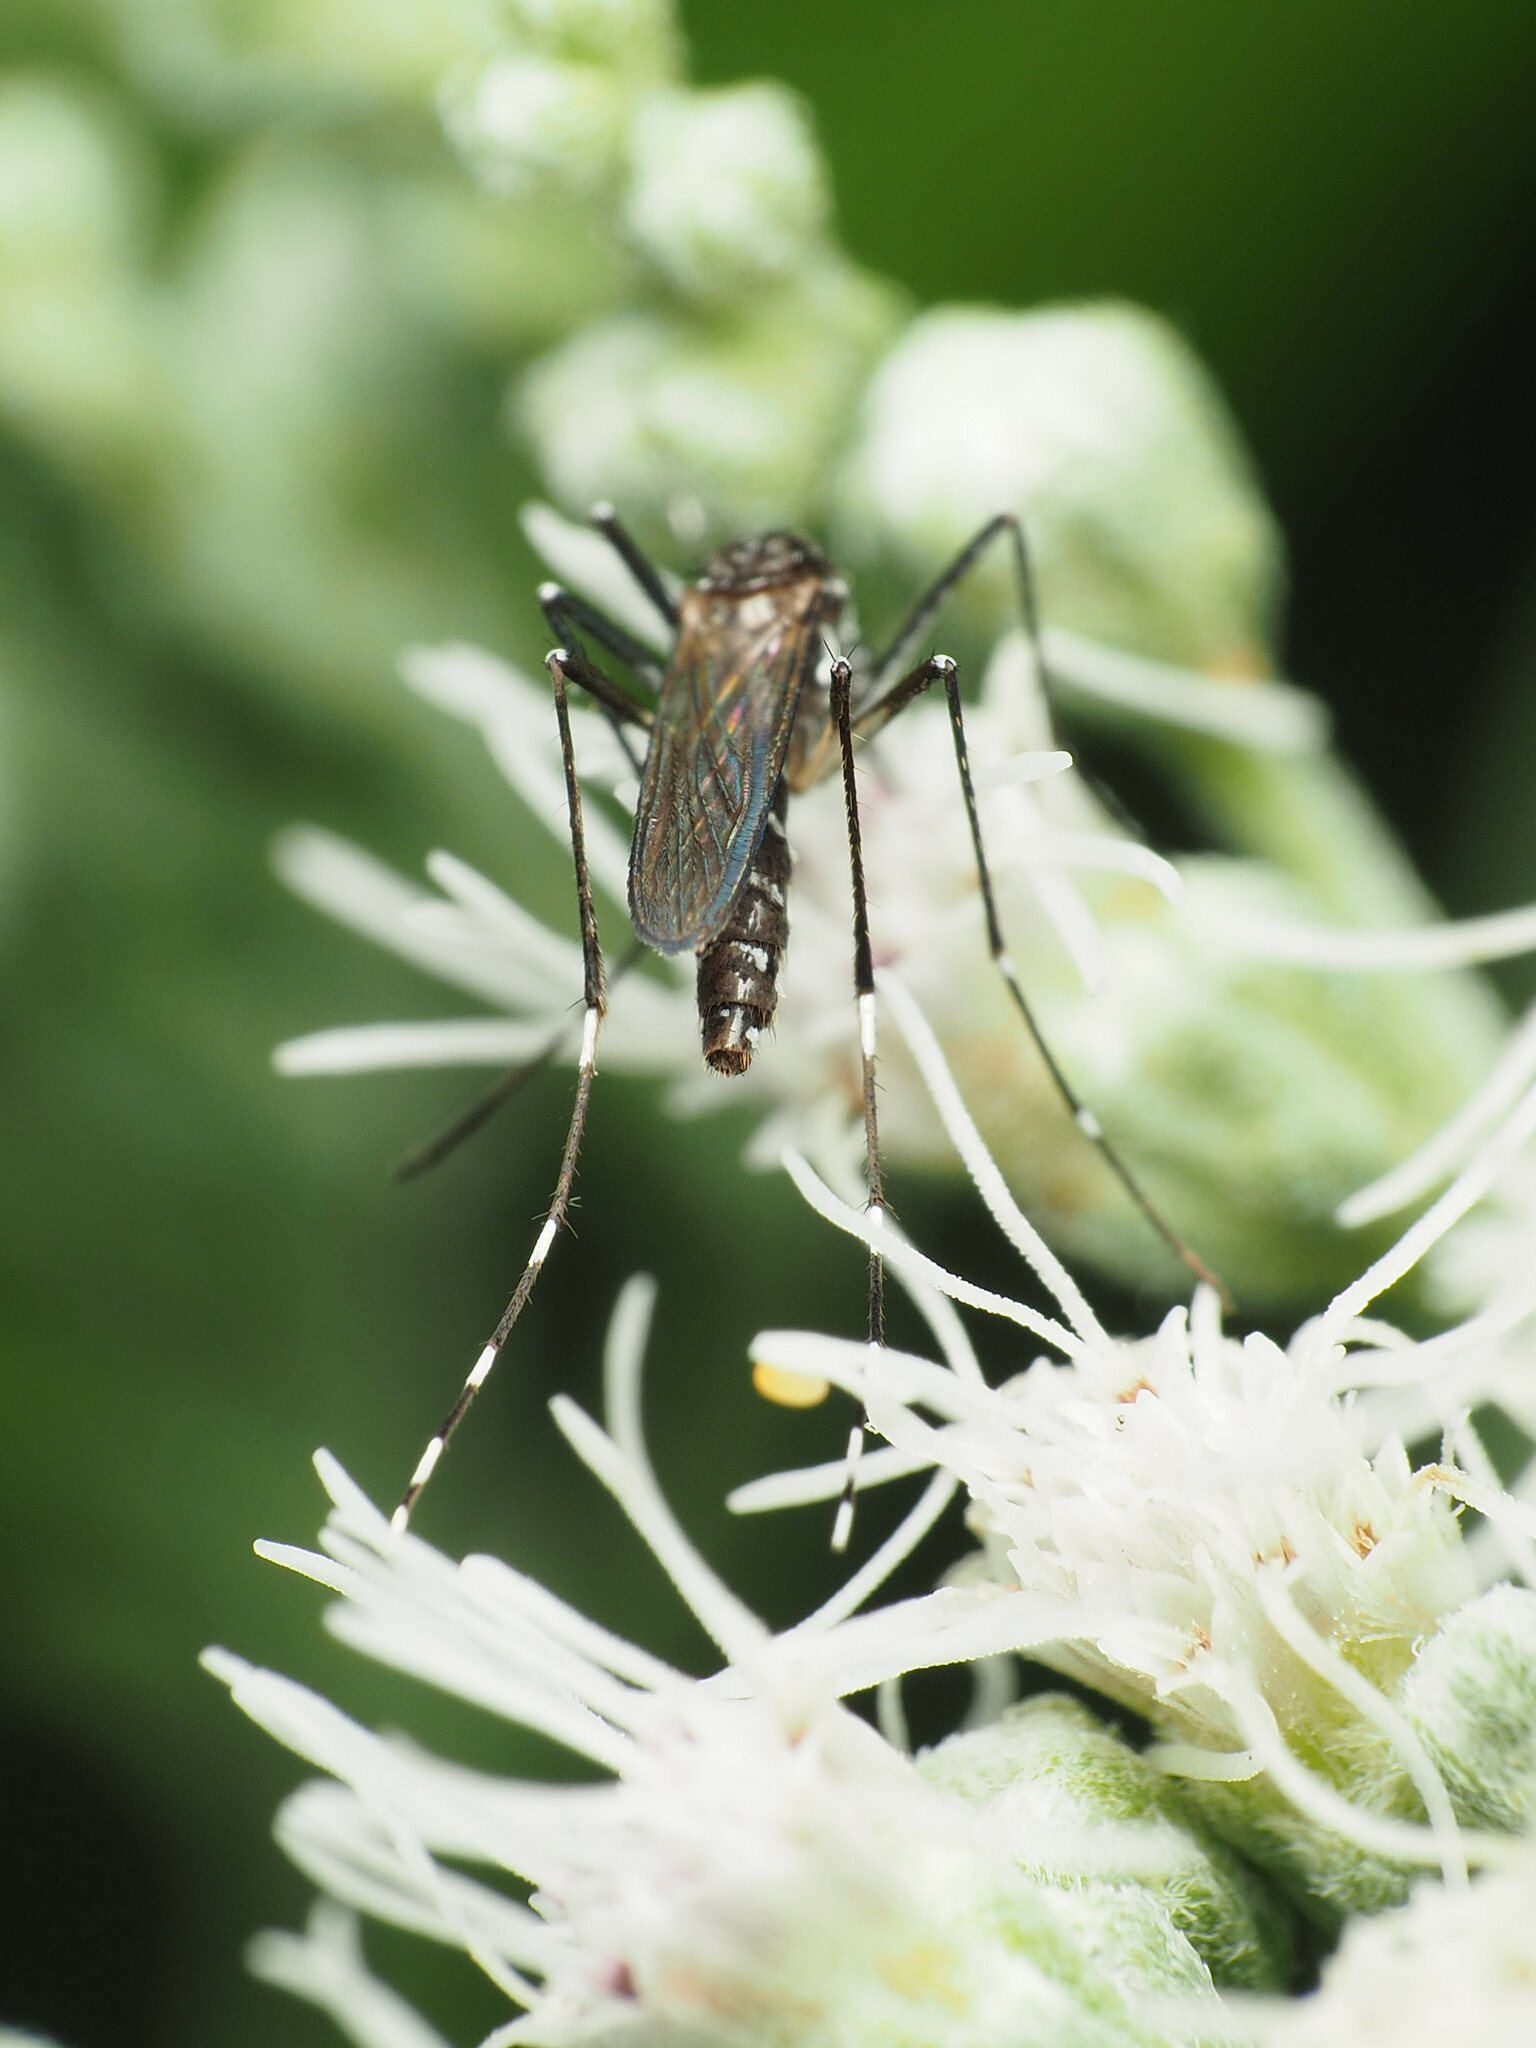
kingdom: Animalia
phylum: Arthropoda
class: Insecta
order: Diptera
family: Culicidae
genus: Aedes
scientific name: Aedes albopictus
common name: Tiger mosquito
